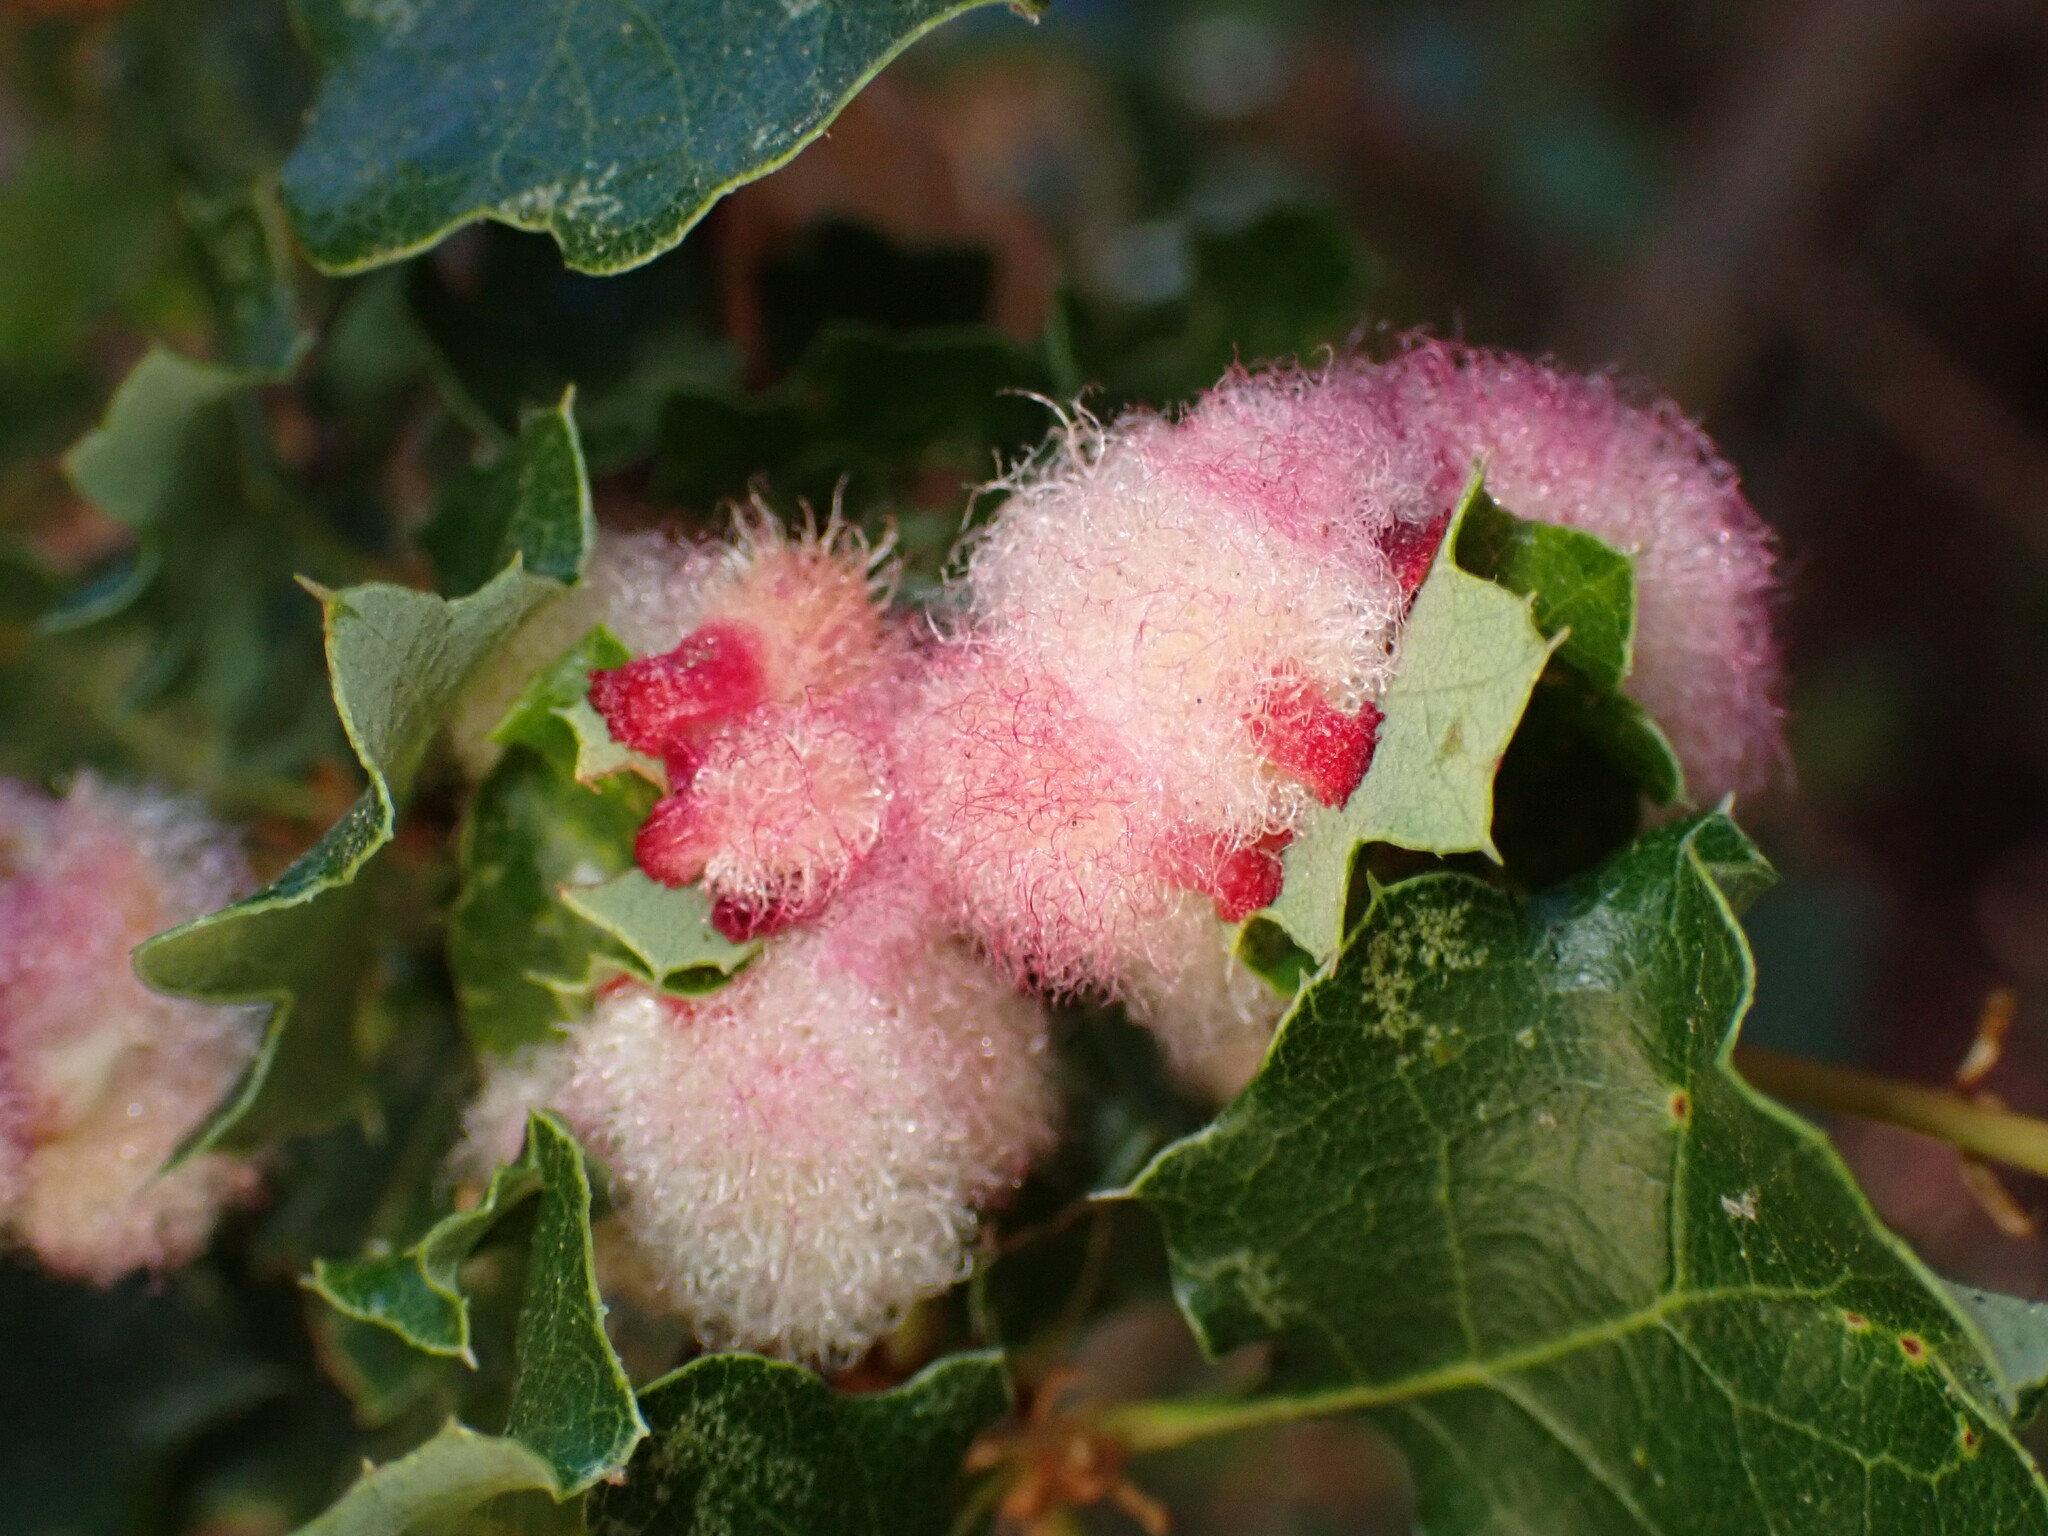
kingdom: Animalia
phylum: Arthropoda
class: Insecta
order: Hymenoptera
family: Cynipidae
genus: Andricus
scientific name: Andricus
